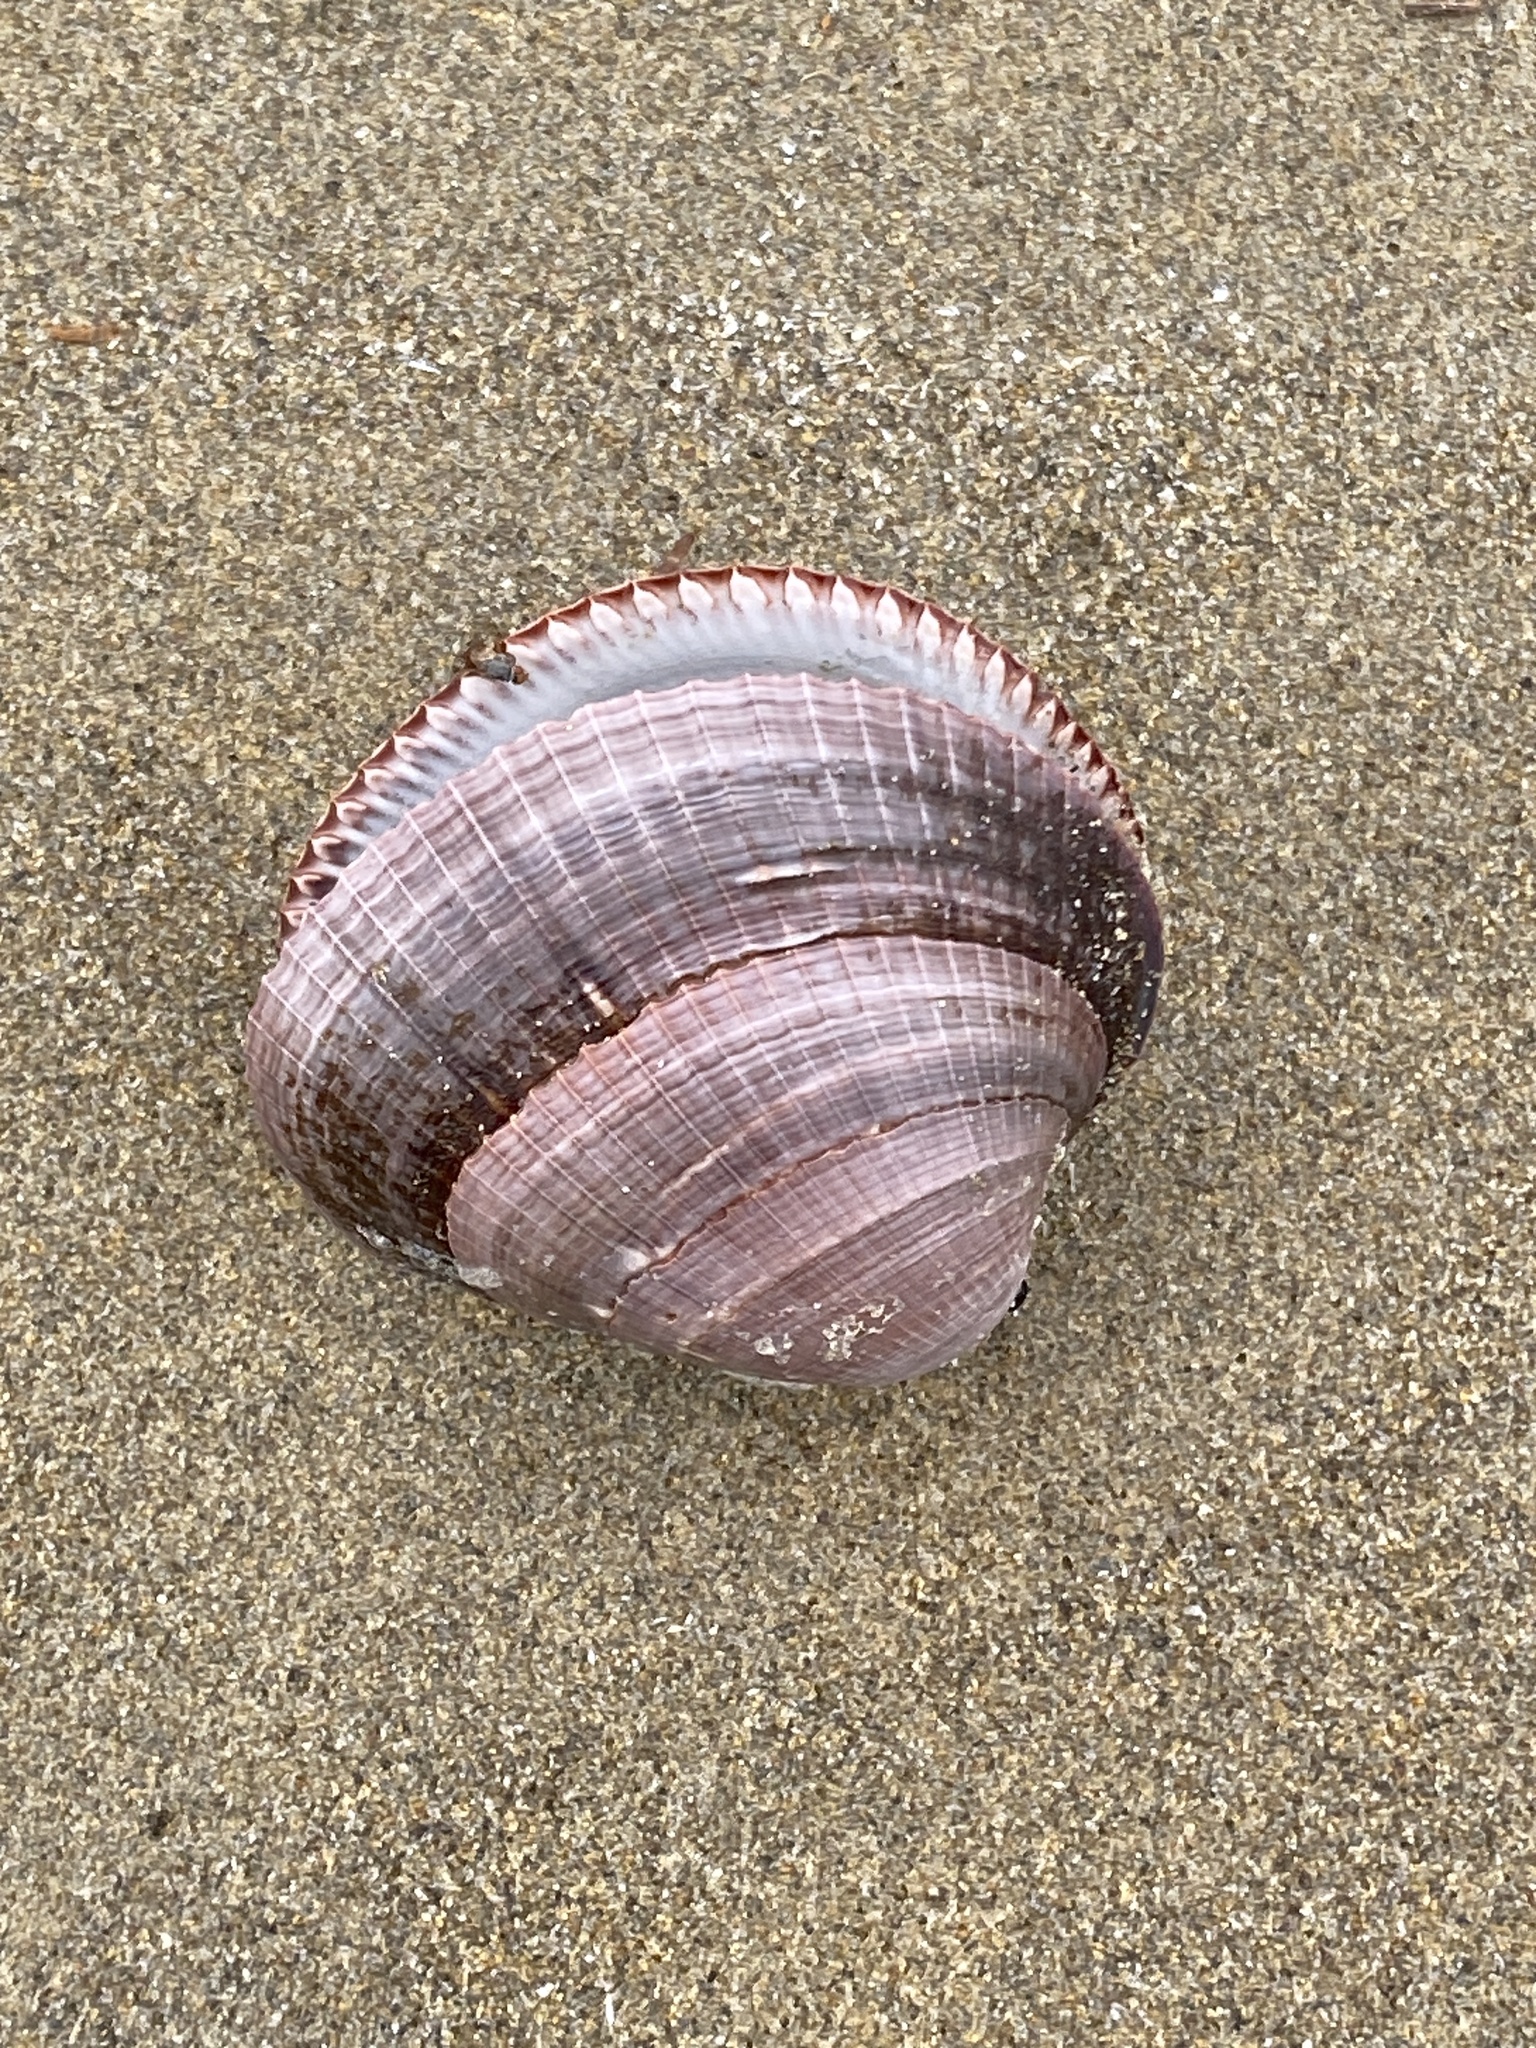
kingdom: Animalia
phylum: Mollusca
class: Bivalvia
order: Arcida
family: Glycymerididae
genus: Glycymeris
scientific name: Glycymeris nummaria
